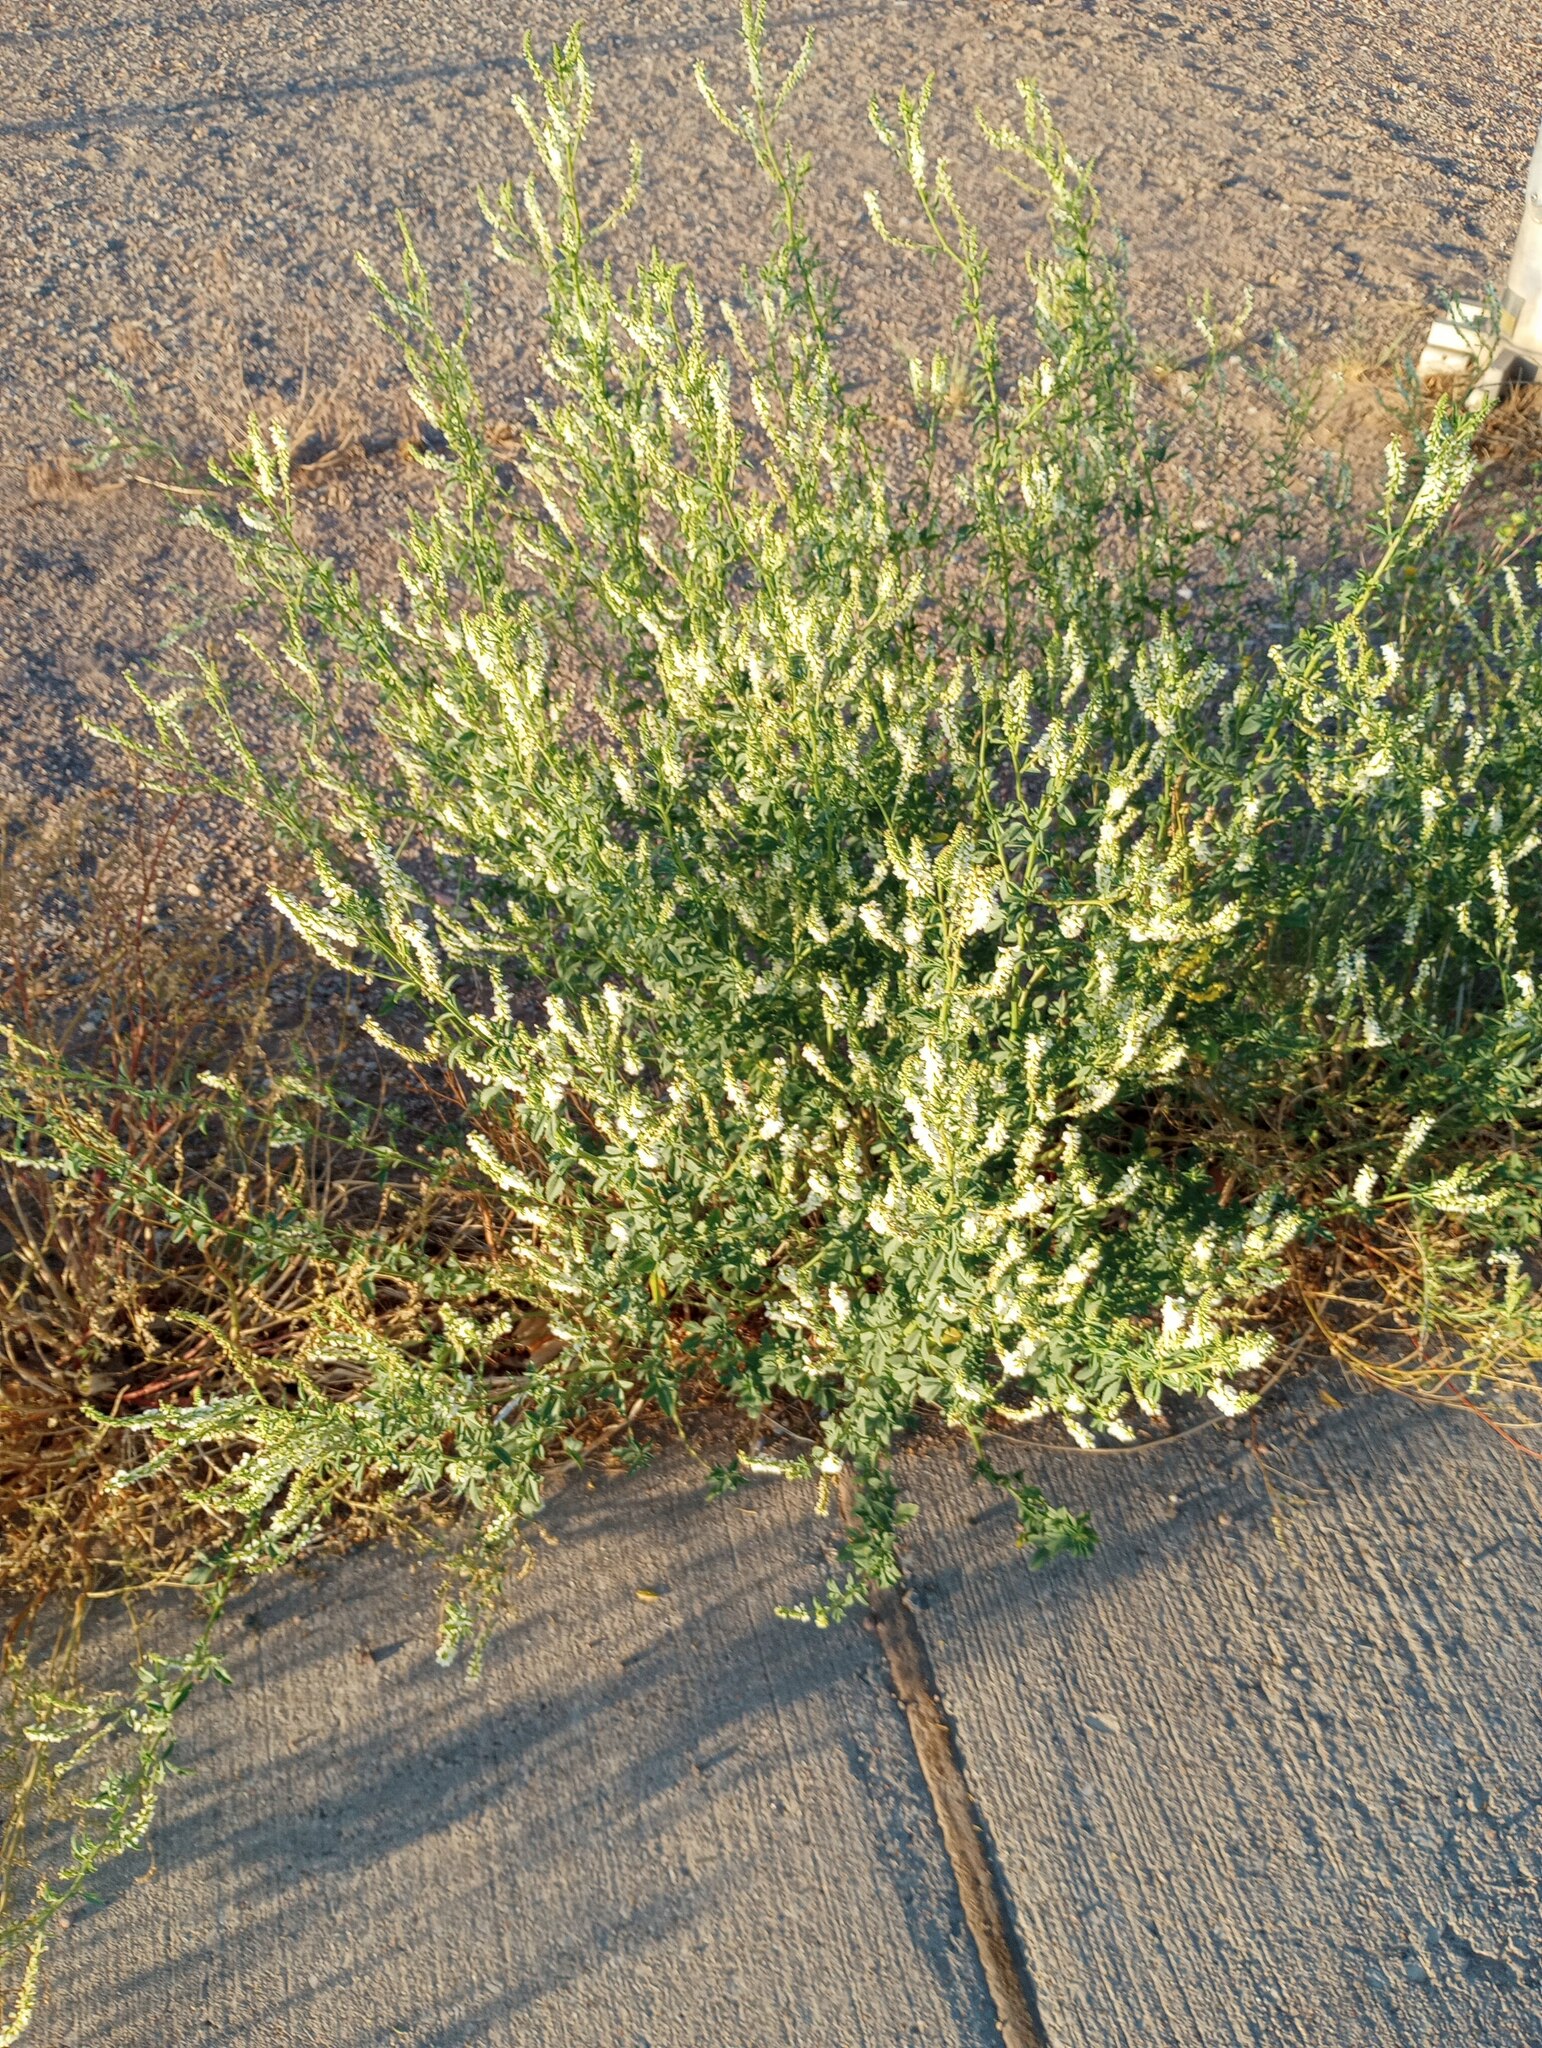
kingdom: Plantae
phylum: Tracheophyta
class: Magnoliopsida
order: Fabales
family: Fabaceae
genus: Melilotus
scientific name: Melilotus albus
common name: White melilot
